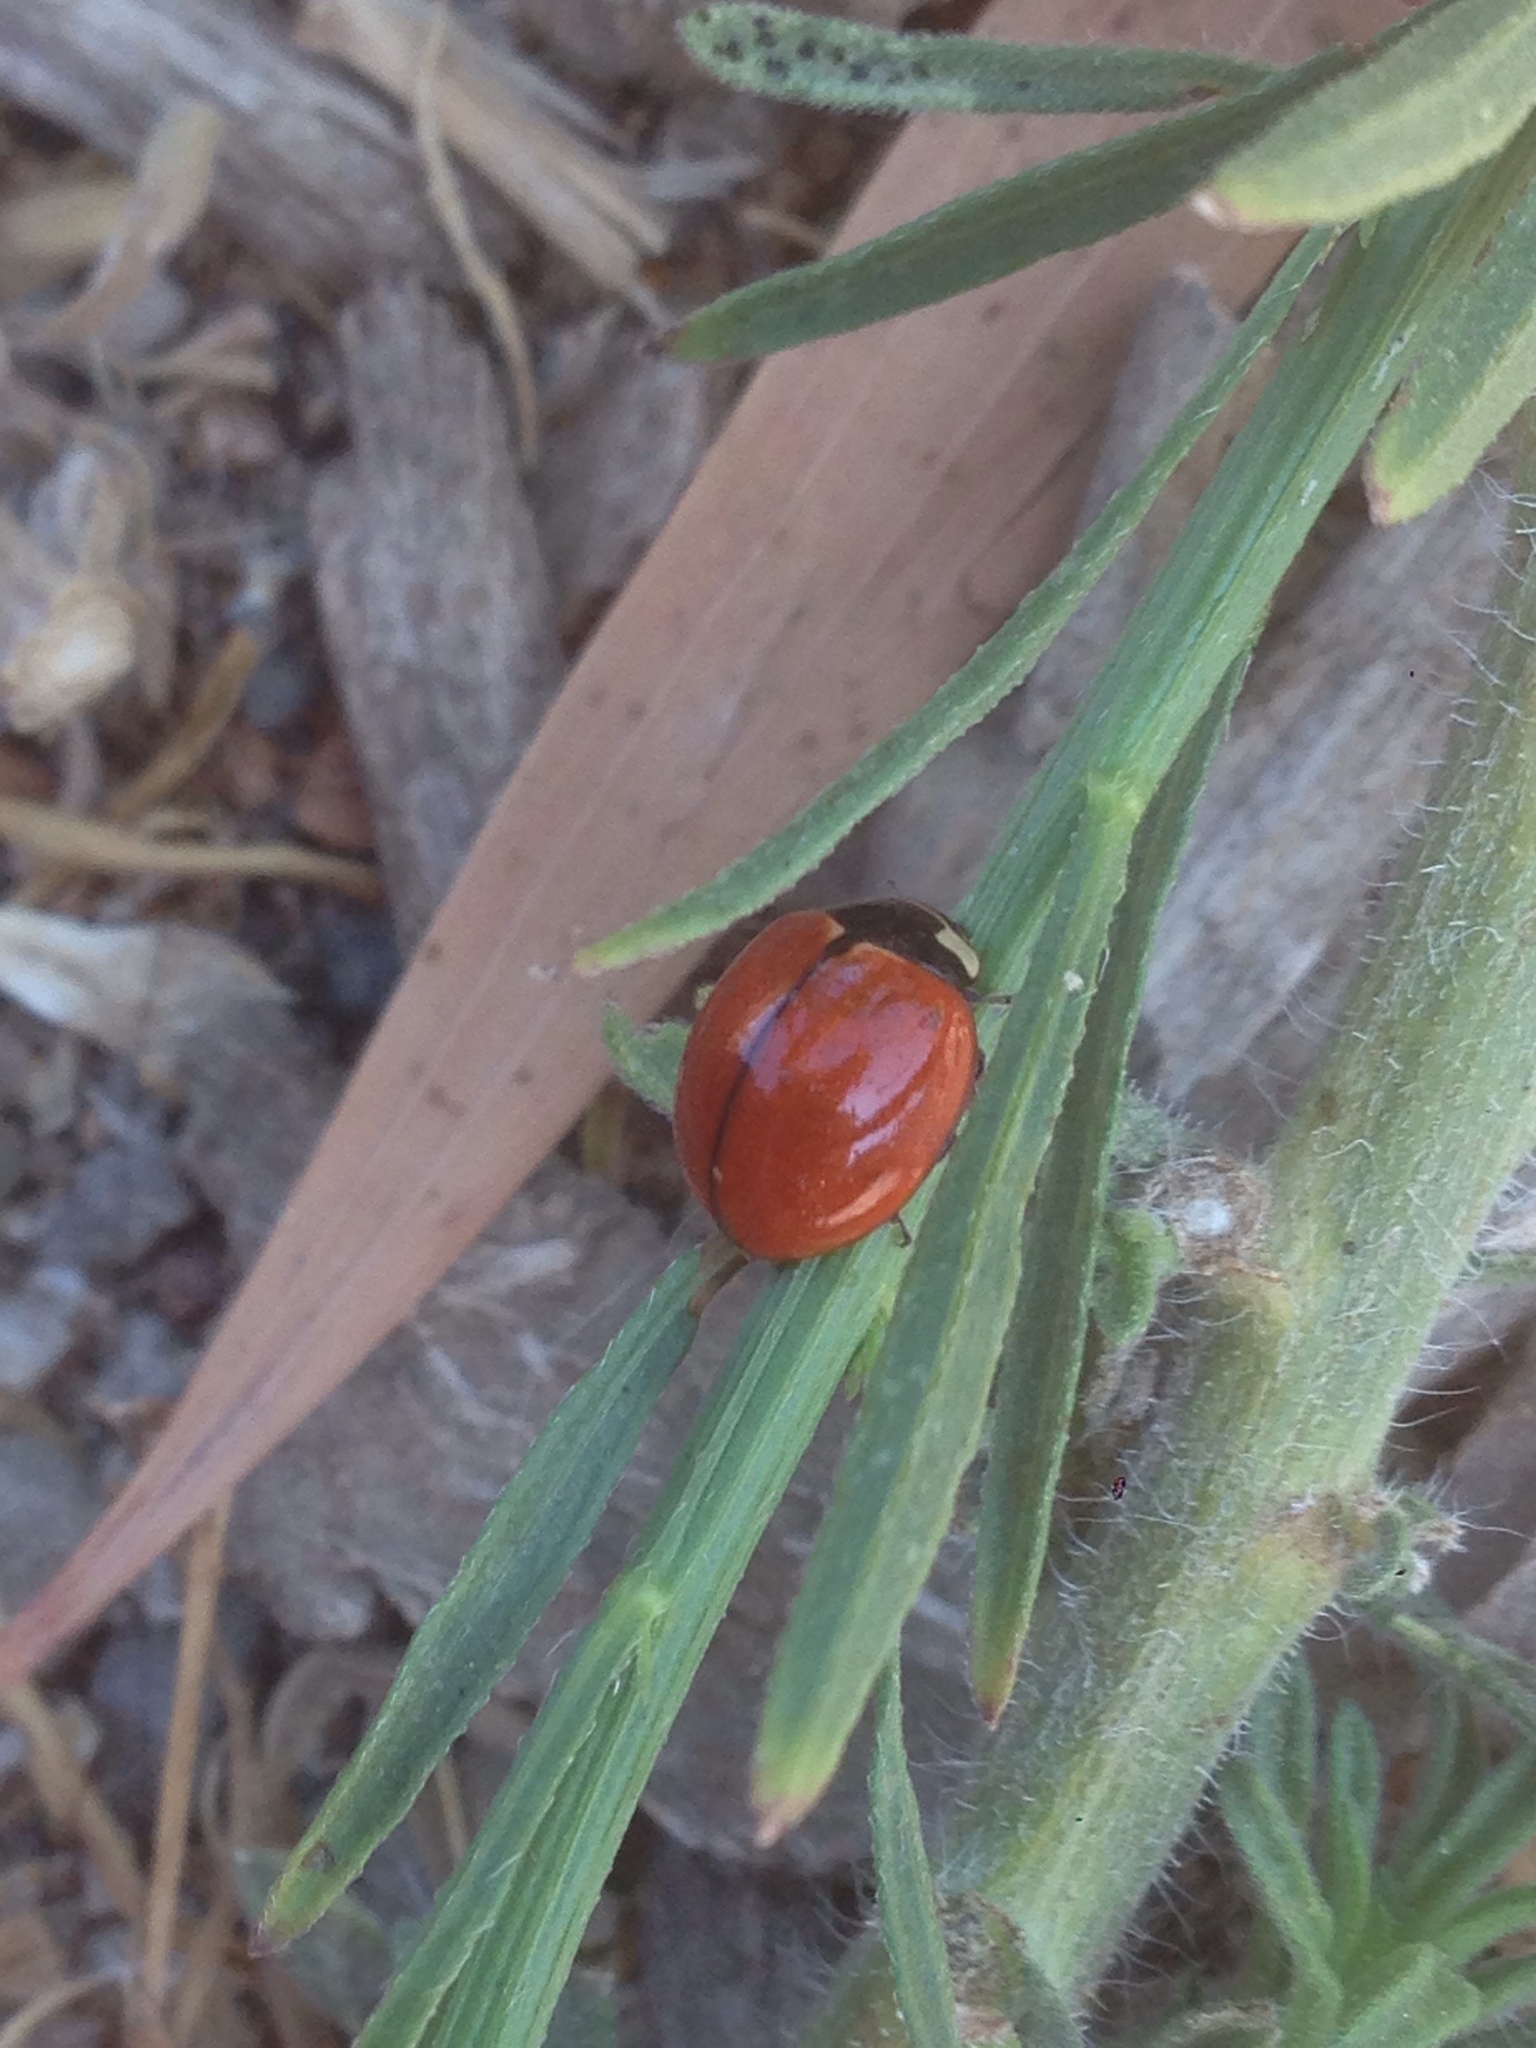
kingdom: Animalia
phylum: Arthropoda
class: Insecta
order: Coleoptera
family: Coccinellidae
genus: Coccinella
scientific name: Coccinella novemnotata
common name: Nine-spotted lady beetle
